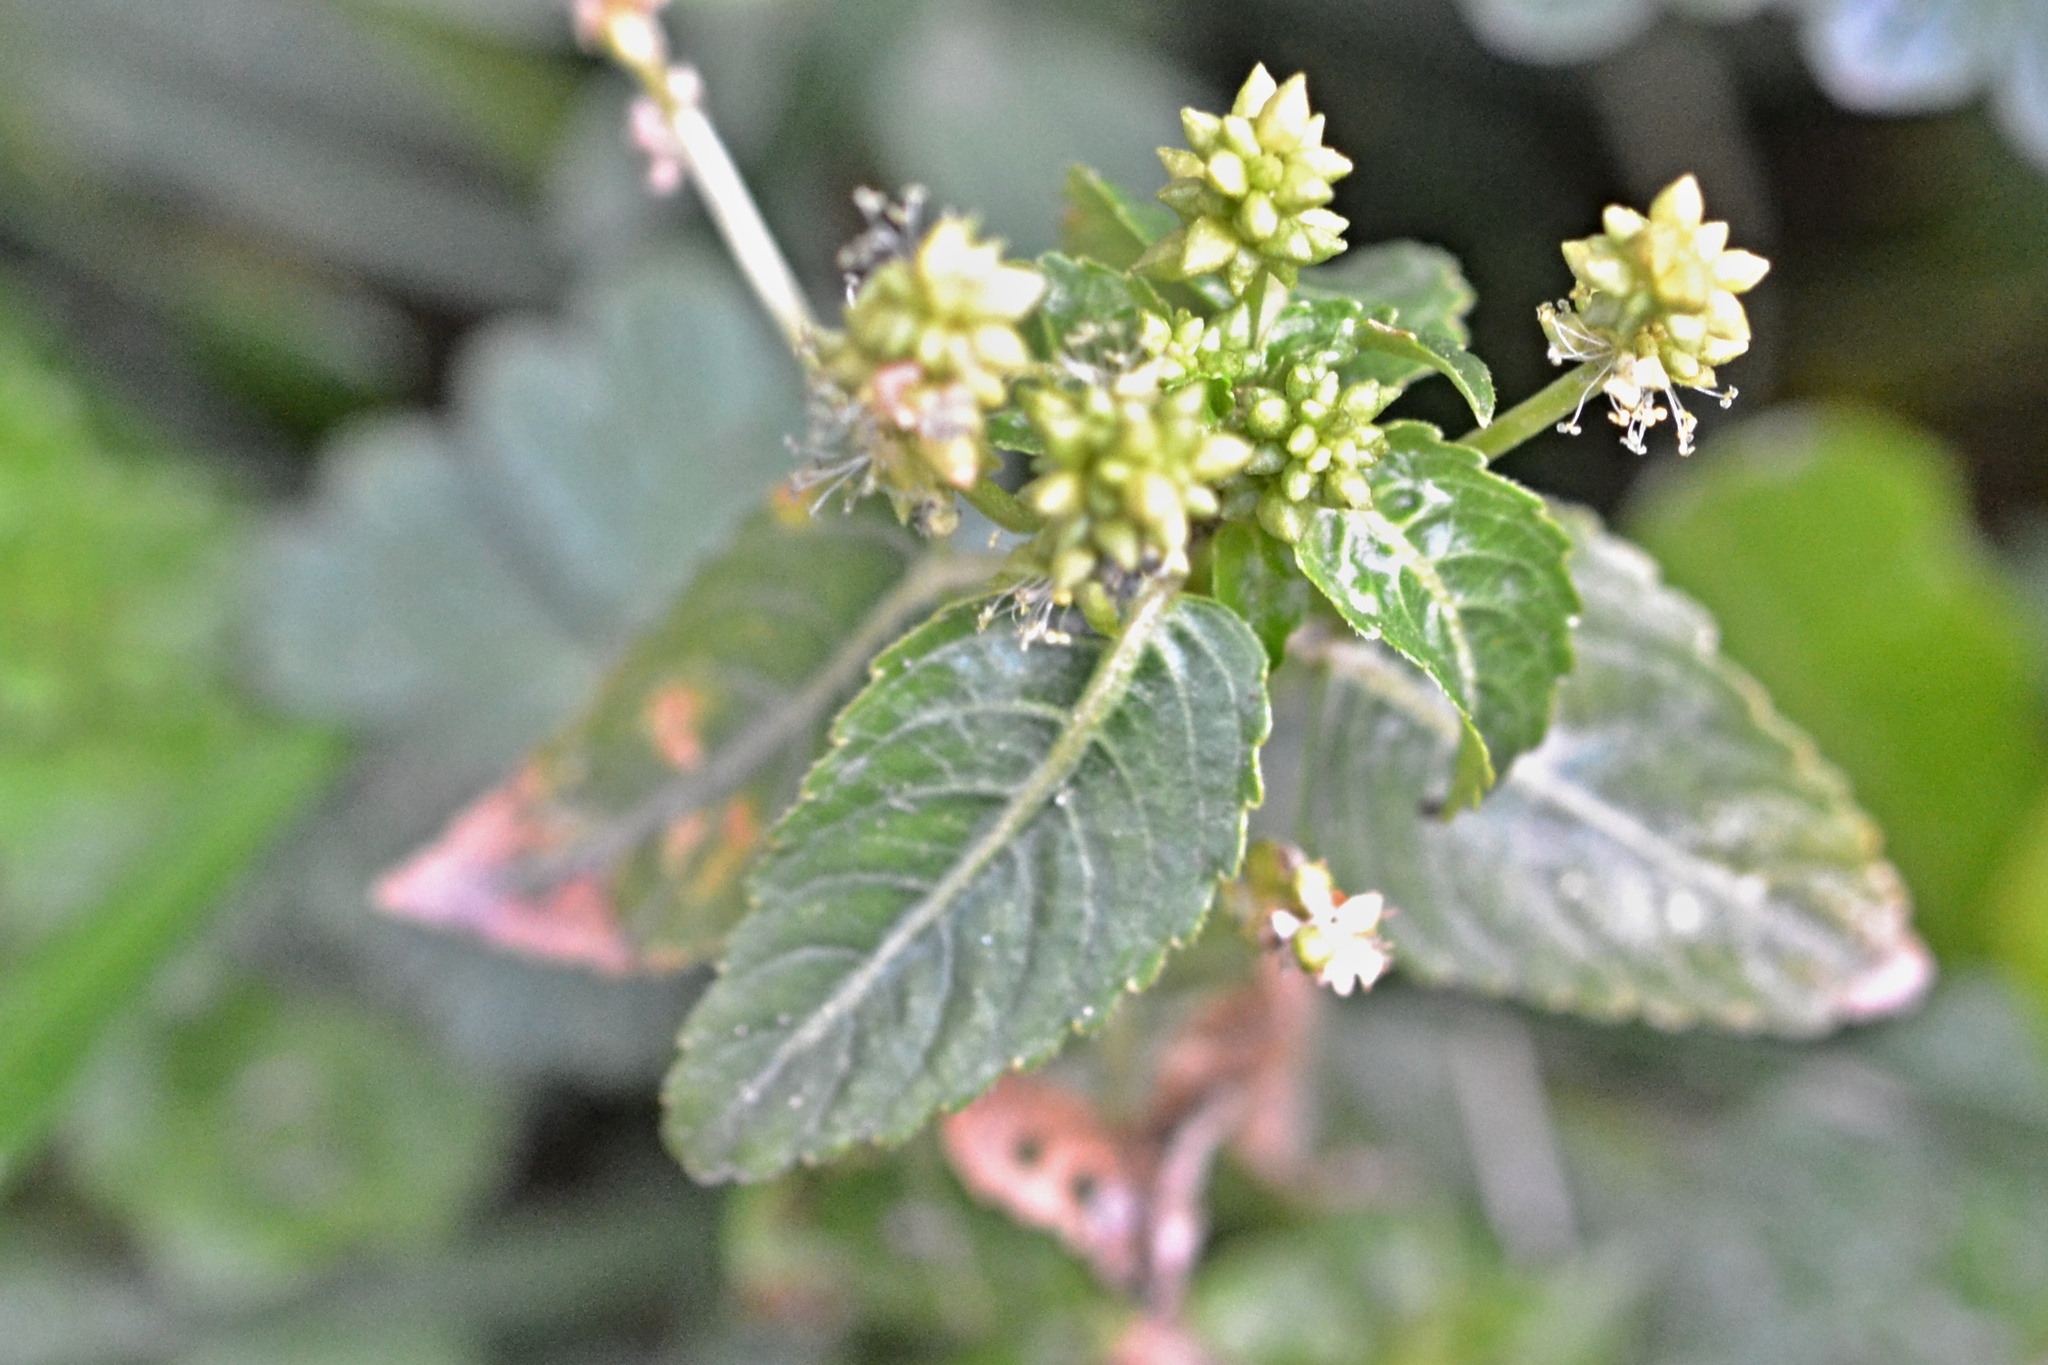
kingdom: Plantae
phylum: Tracheophyta
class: Magnoliopsida
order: Malpighiales
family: Euphorbiaceae
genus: Mercurialis
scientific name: Mercurialis annua
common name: Annual mercury
